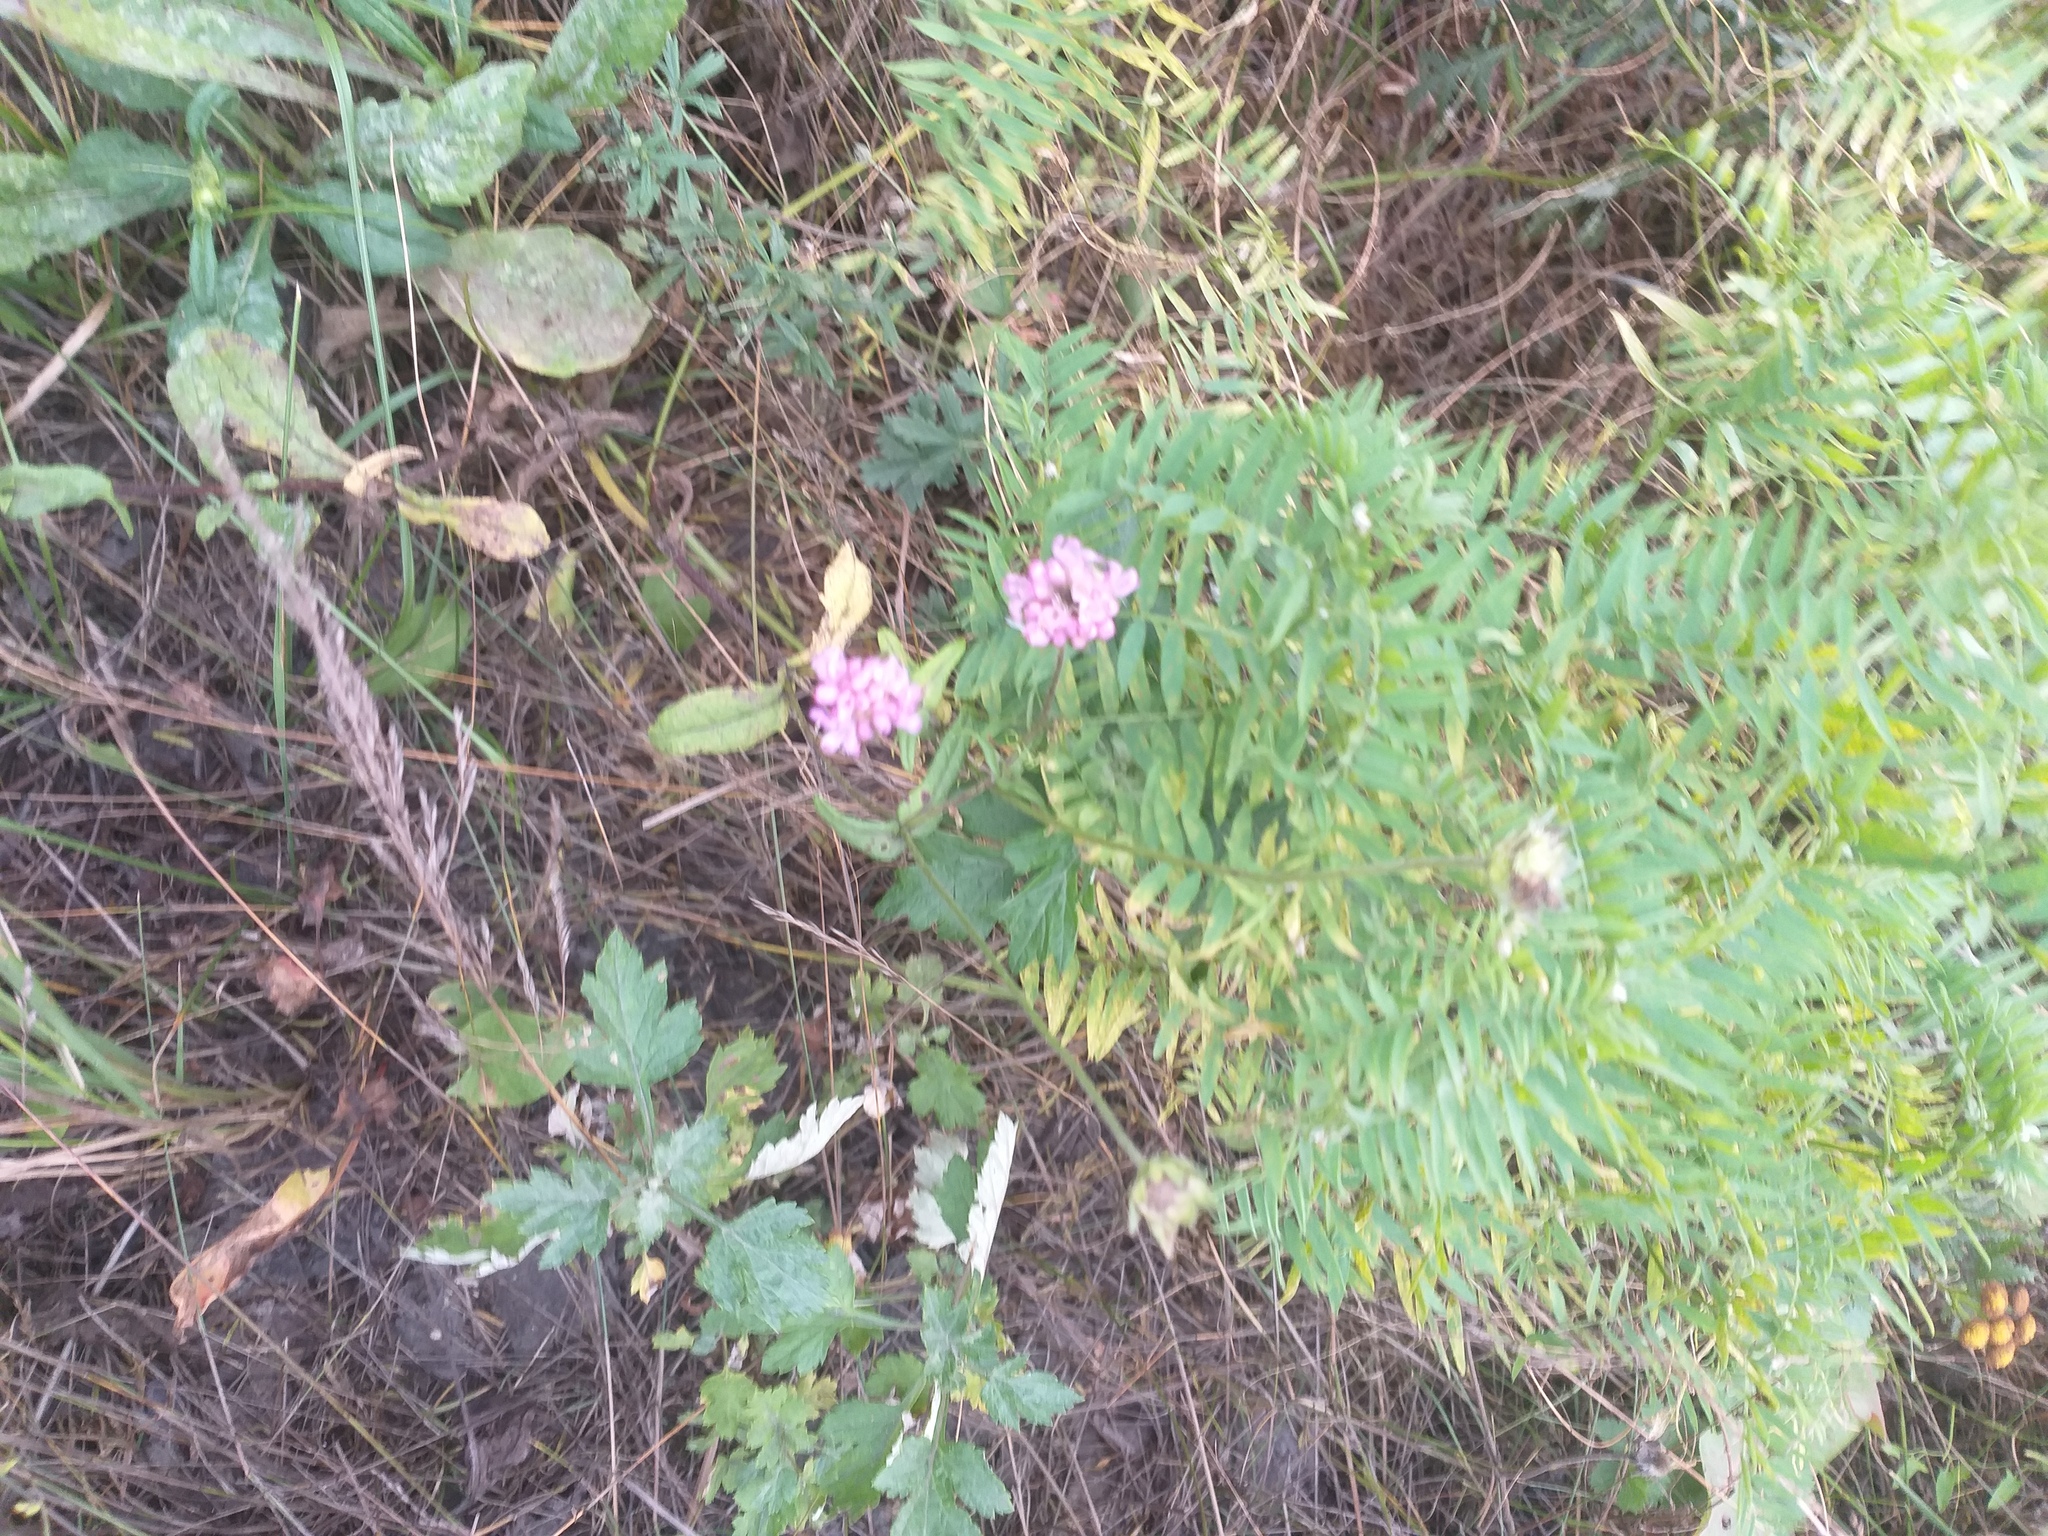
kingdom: Plantae
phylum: Tracheophyta
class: Magnoliopsida
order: Dipsacales
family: Caprifoliaceae
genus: Knautia
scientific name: Knautia arvensis
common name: Field scabiosa
